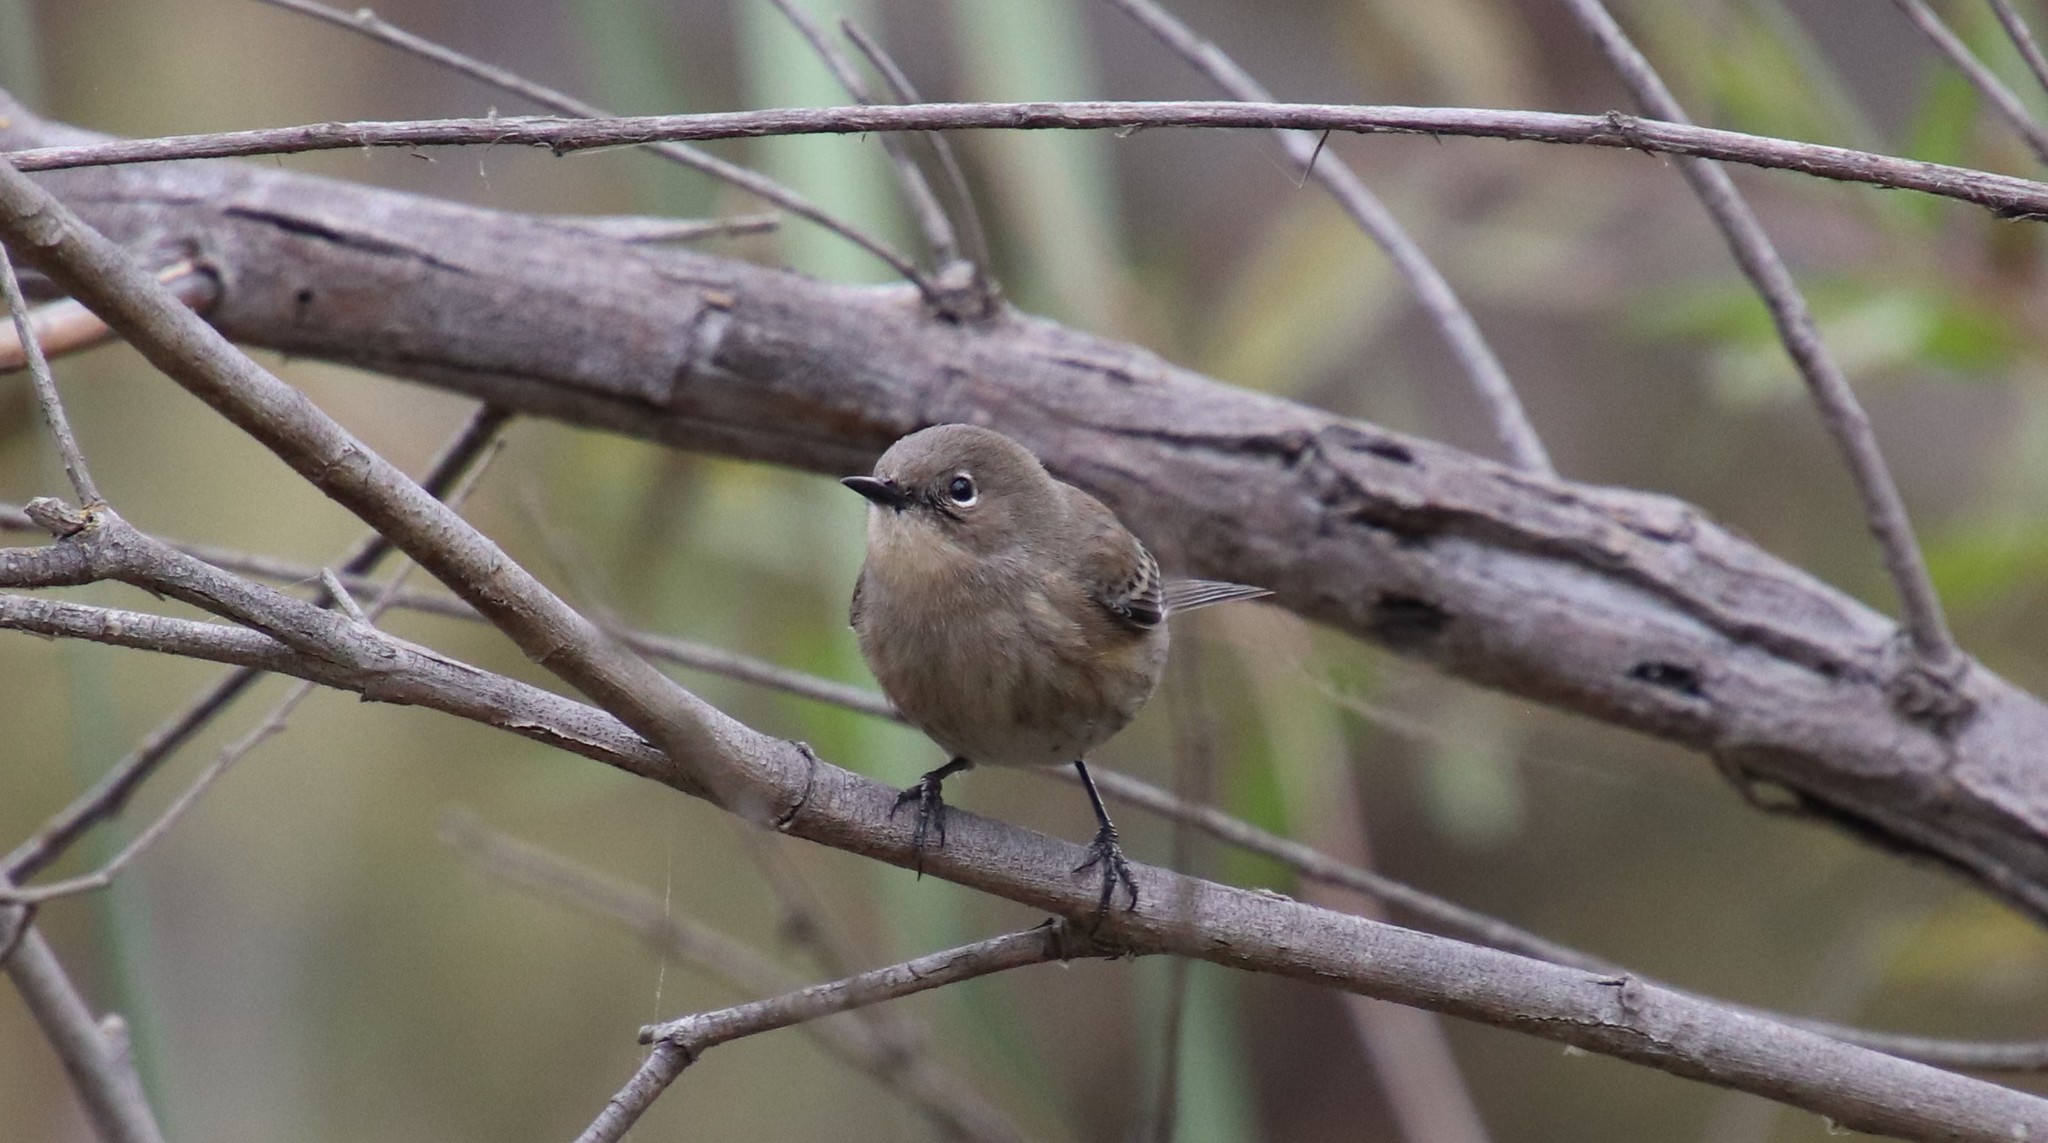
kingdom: Animalia
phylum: Chordata
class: Aves
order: Passeriformes
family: Parulidae
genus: Setophaga
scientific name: Setophaga auduboni
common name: Audubon's warbler
